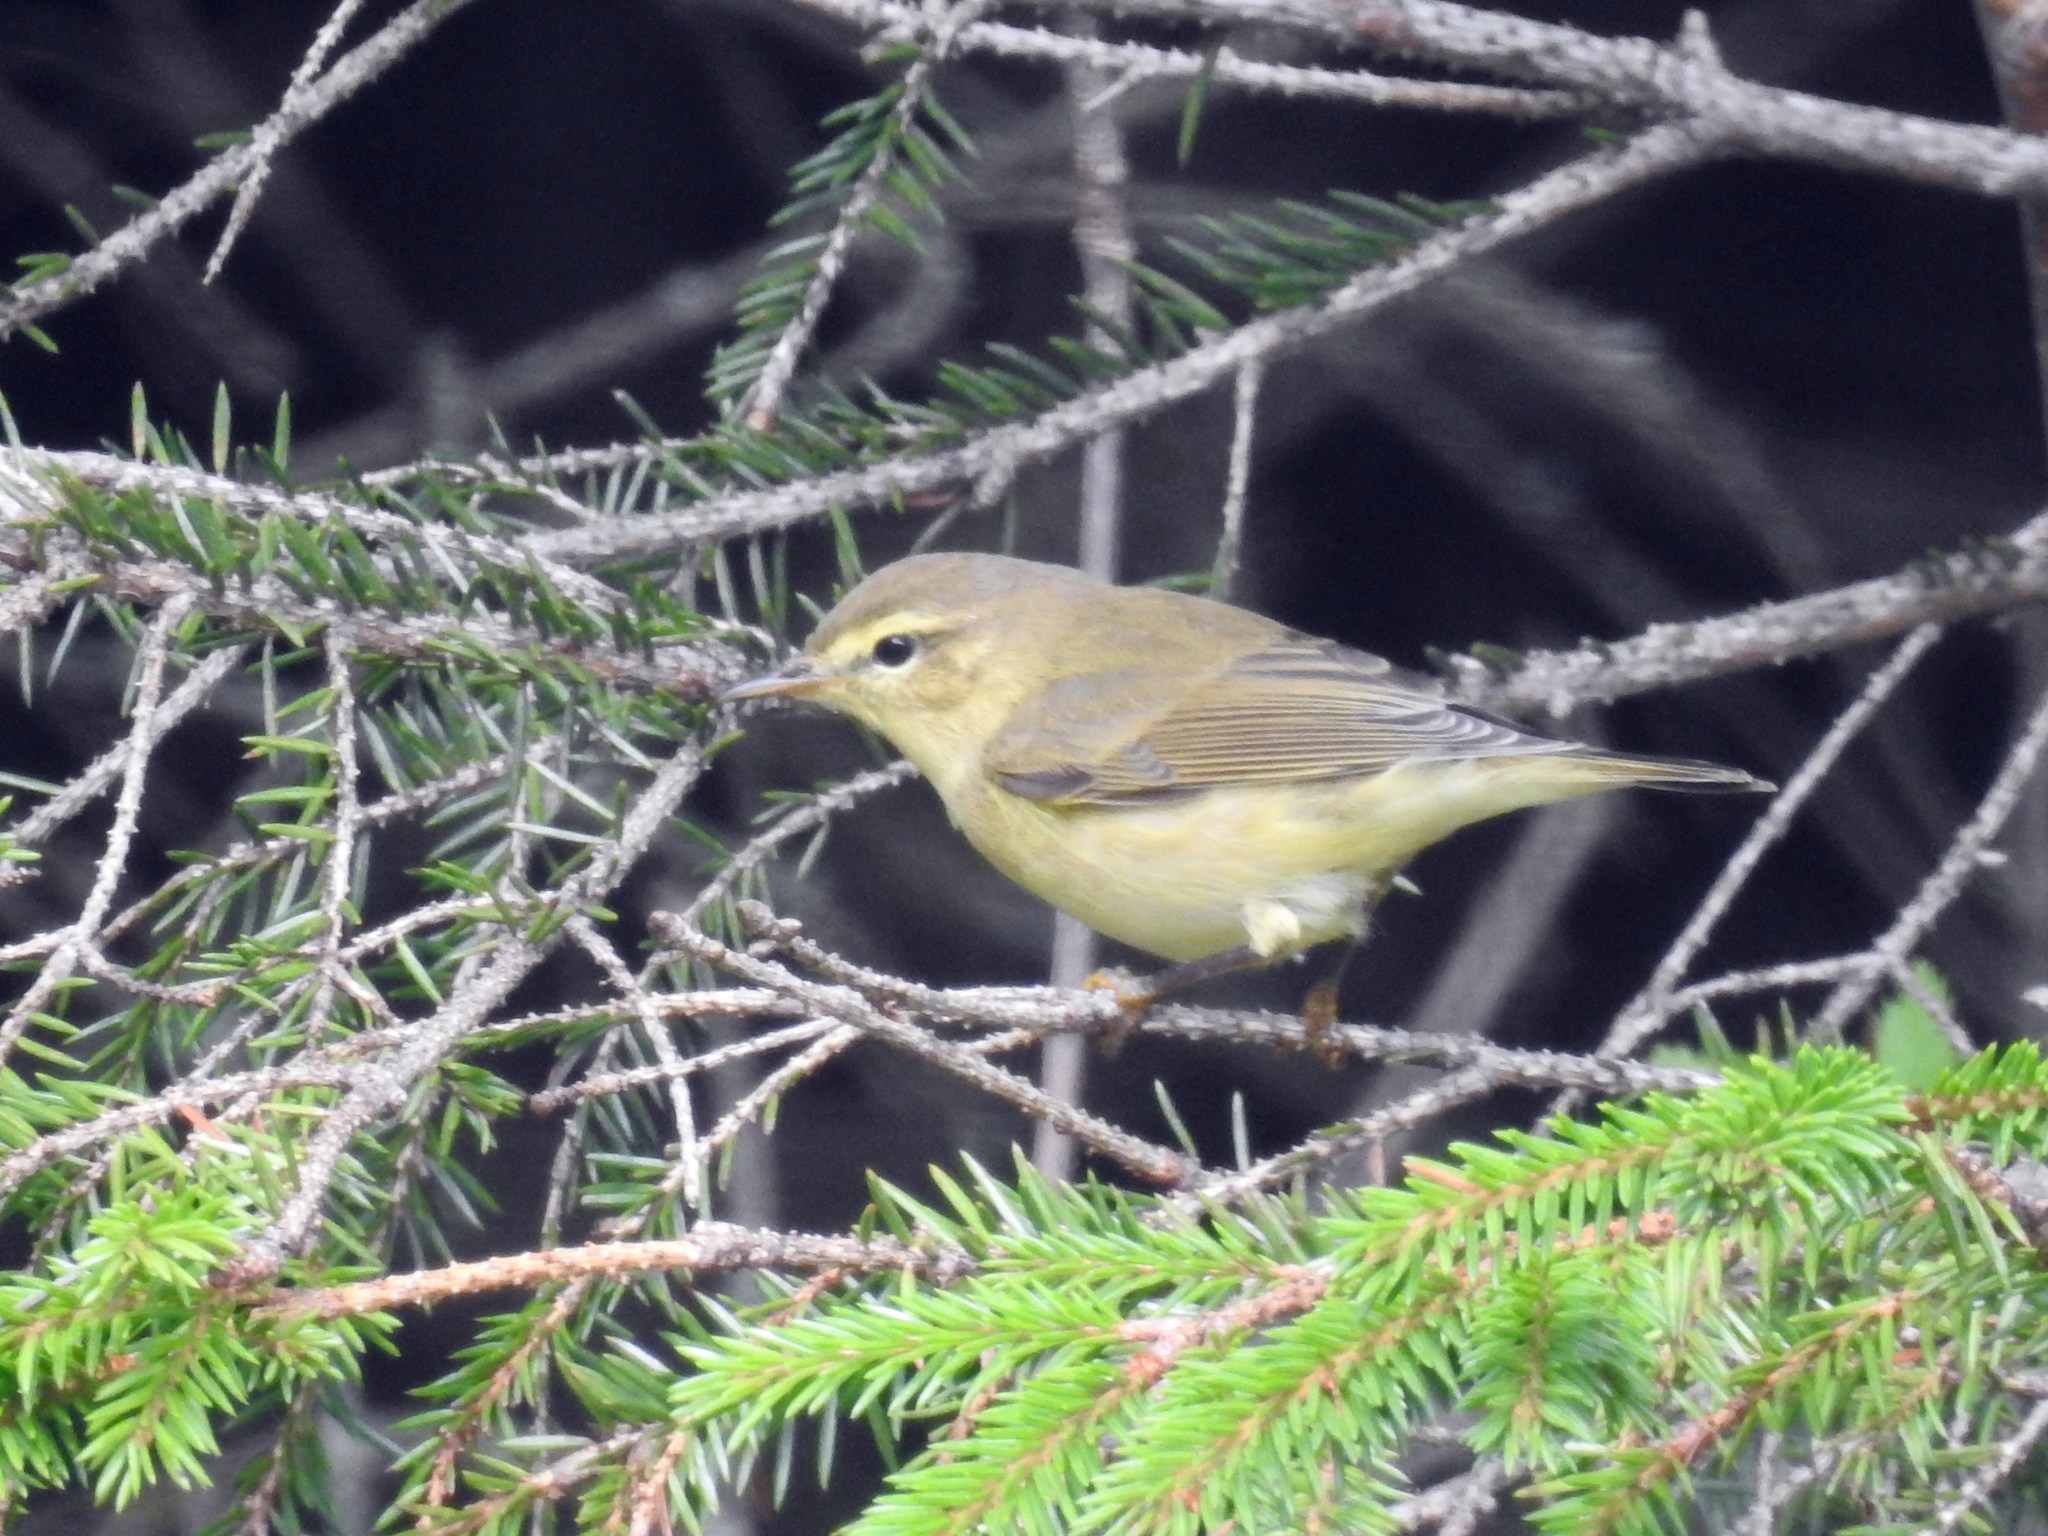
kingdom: Animalia
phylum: Chordata
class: Aves
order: Passeriformes
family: Phylloscopidae
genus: Phylloscopus
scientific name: Phylloscopus trochilus
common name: Willow warbler
